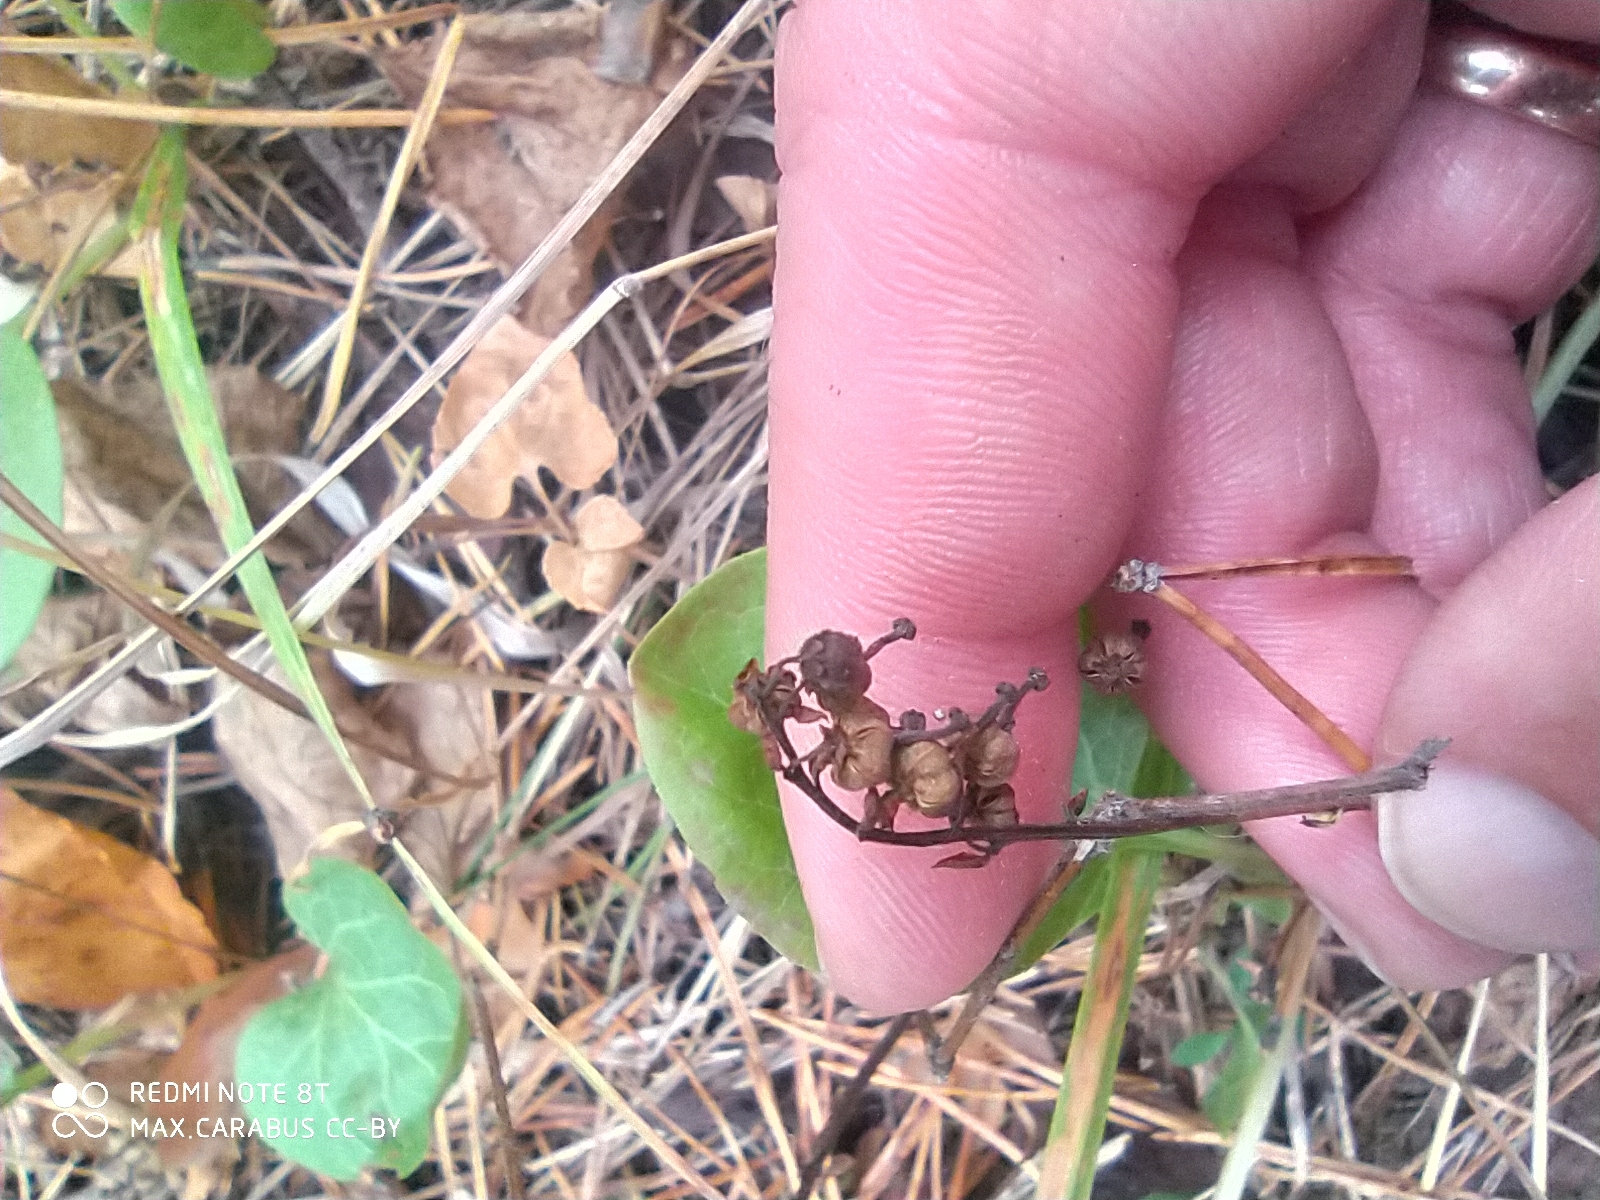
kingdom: Plantae
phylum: Tracheophyta
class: Magnoliopsida
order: Ericales
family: Ericaceae
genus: Pyrola
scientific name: Pyrola rotundifolia
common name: Round-leaved wintergreen
